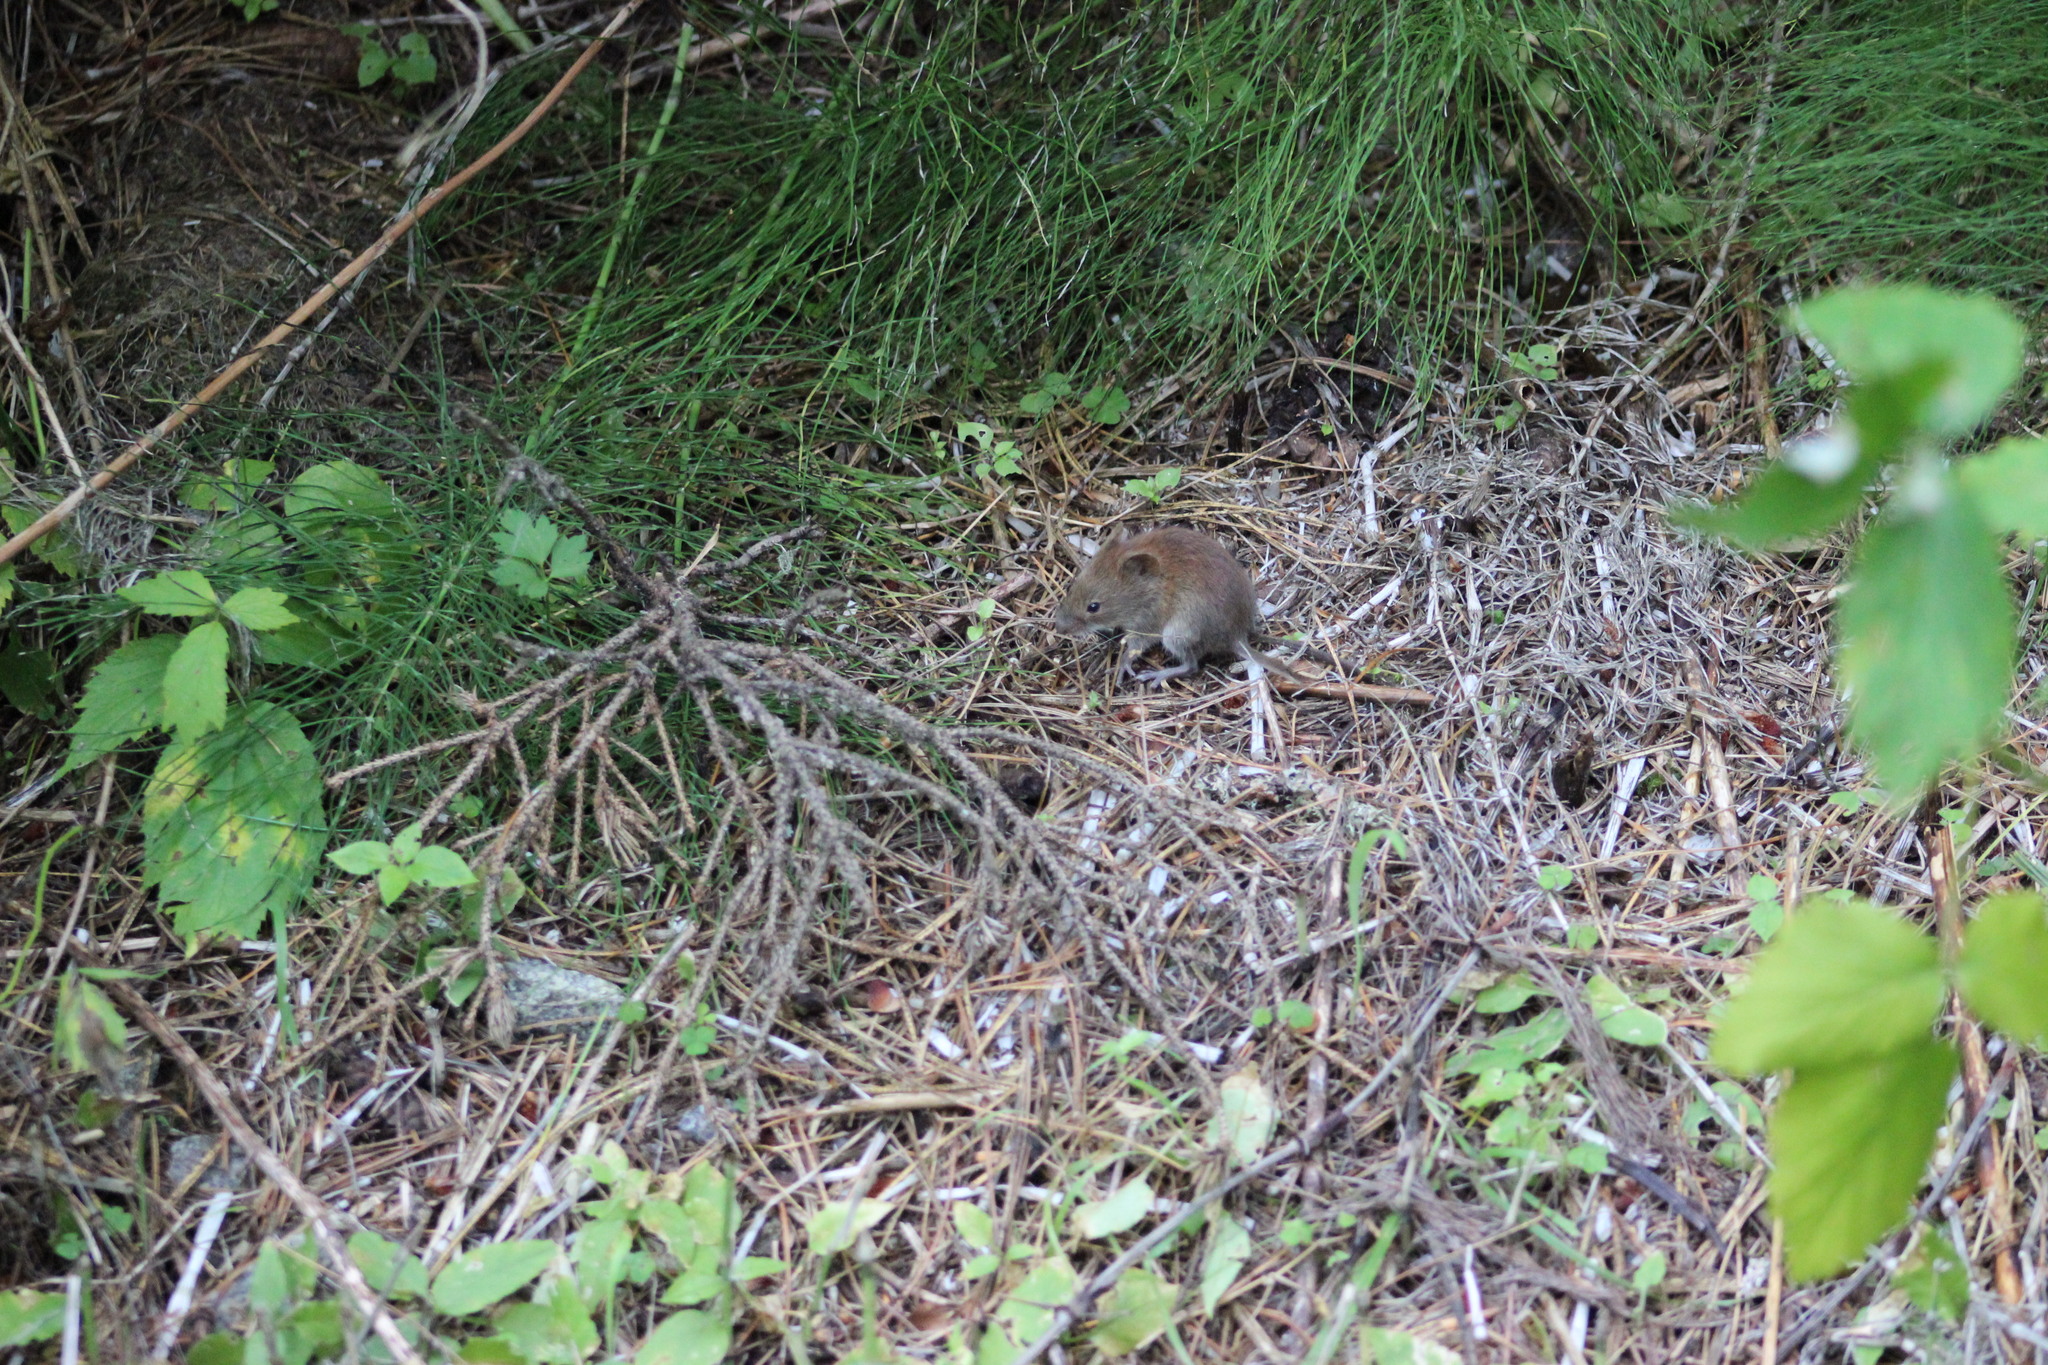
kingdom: Animalia
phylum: Chordata
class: Mammalia
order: Rodentia
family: Cricetidae
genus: Myodes
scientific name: Myodes rutilus
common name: Northern red-backed vole
